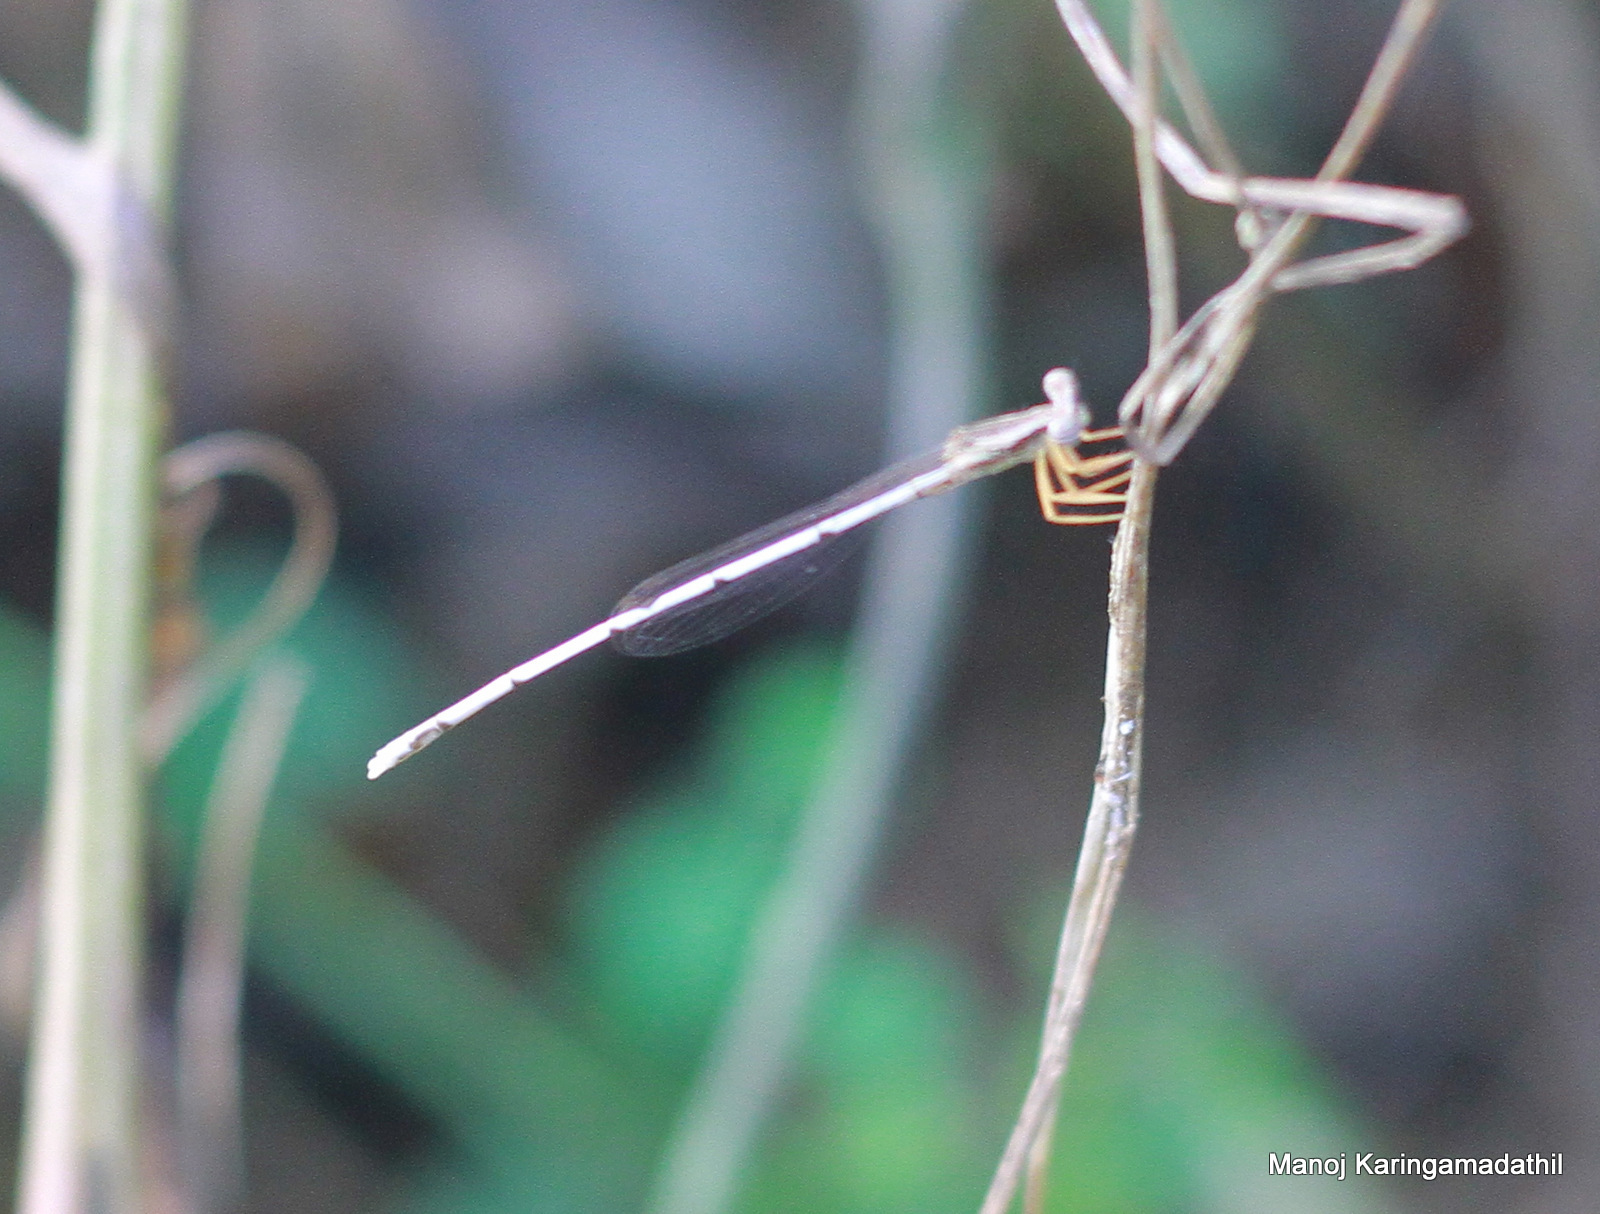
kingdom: Animalia
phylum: Arthropoda
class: Insecta
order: Odonata
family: Platycnemididae
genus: Copera
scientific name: Copera marginipes
